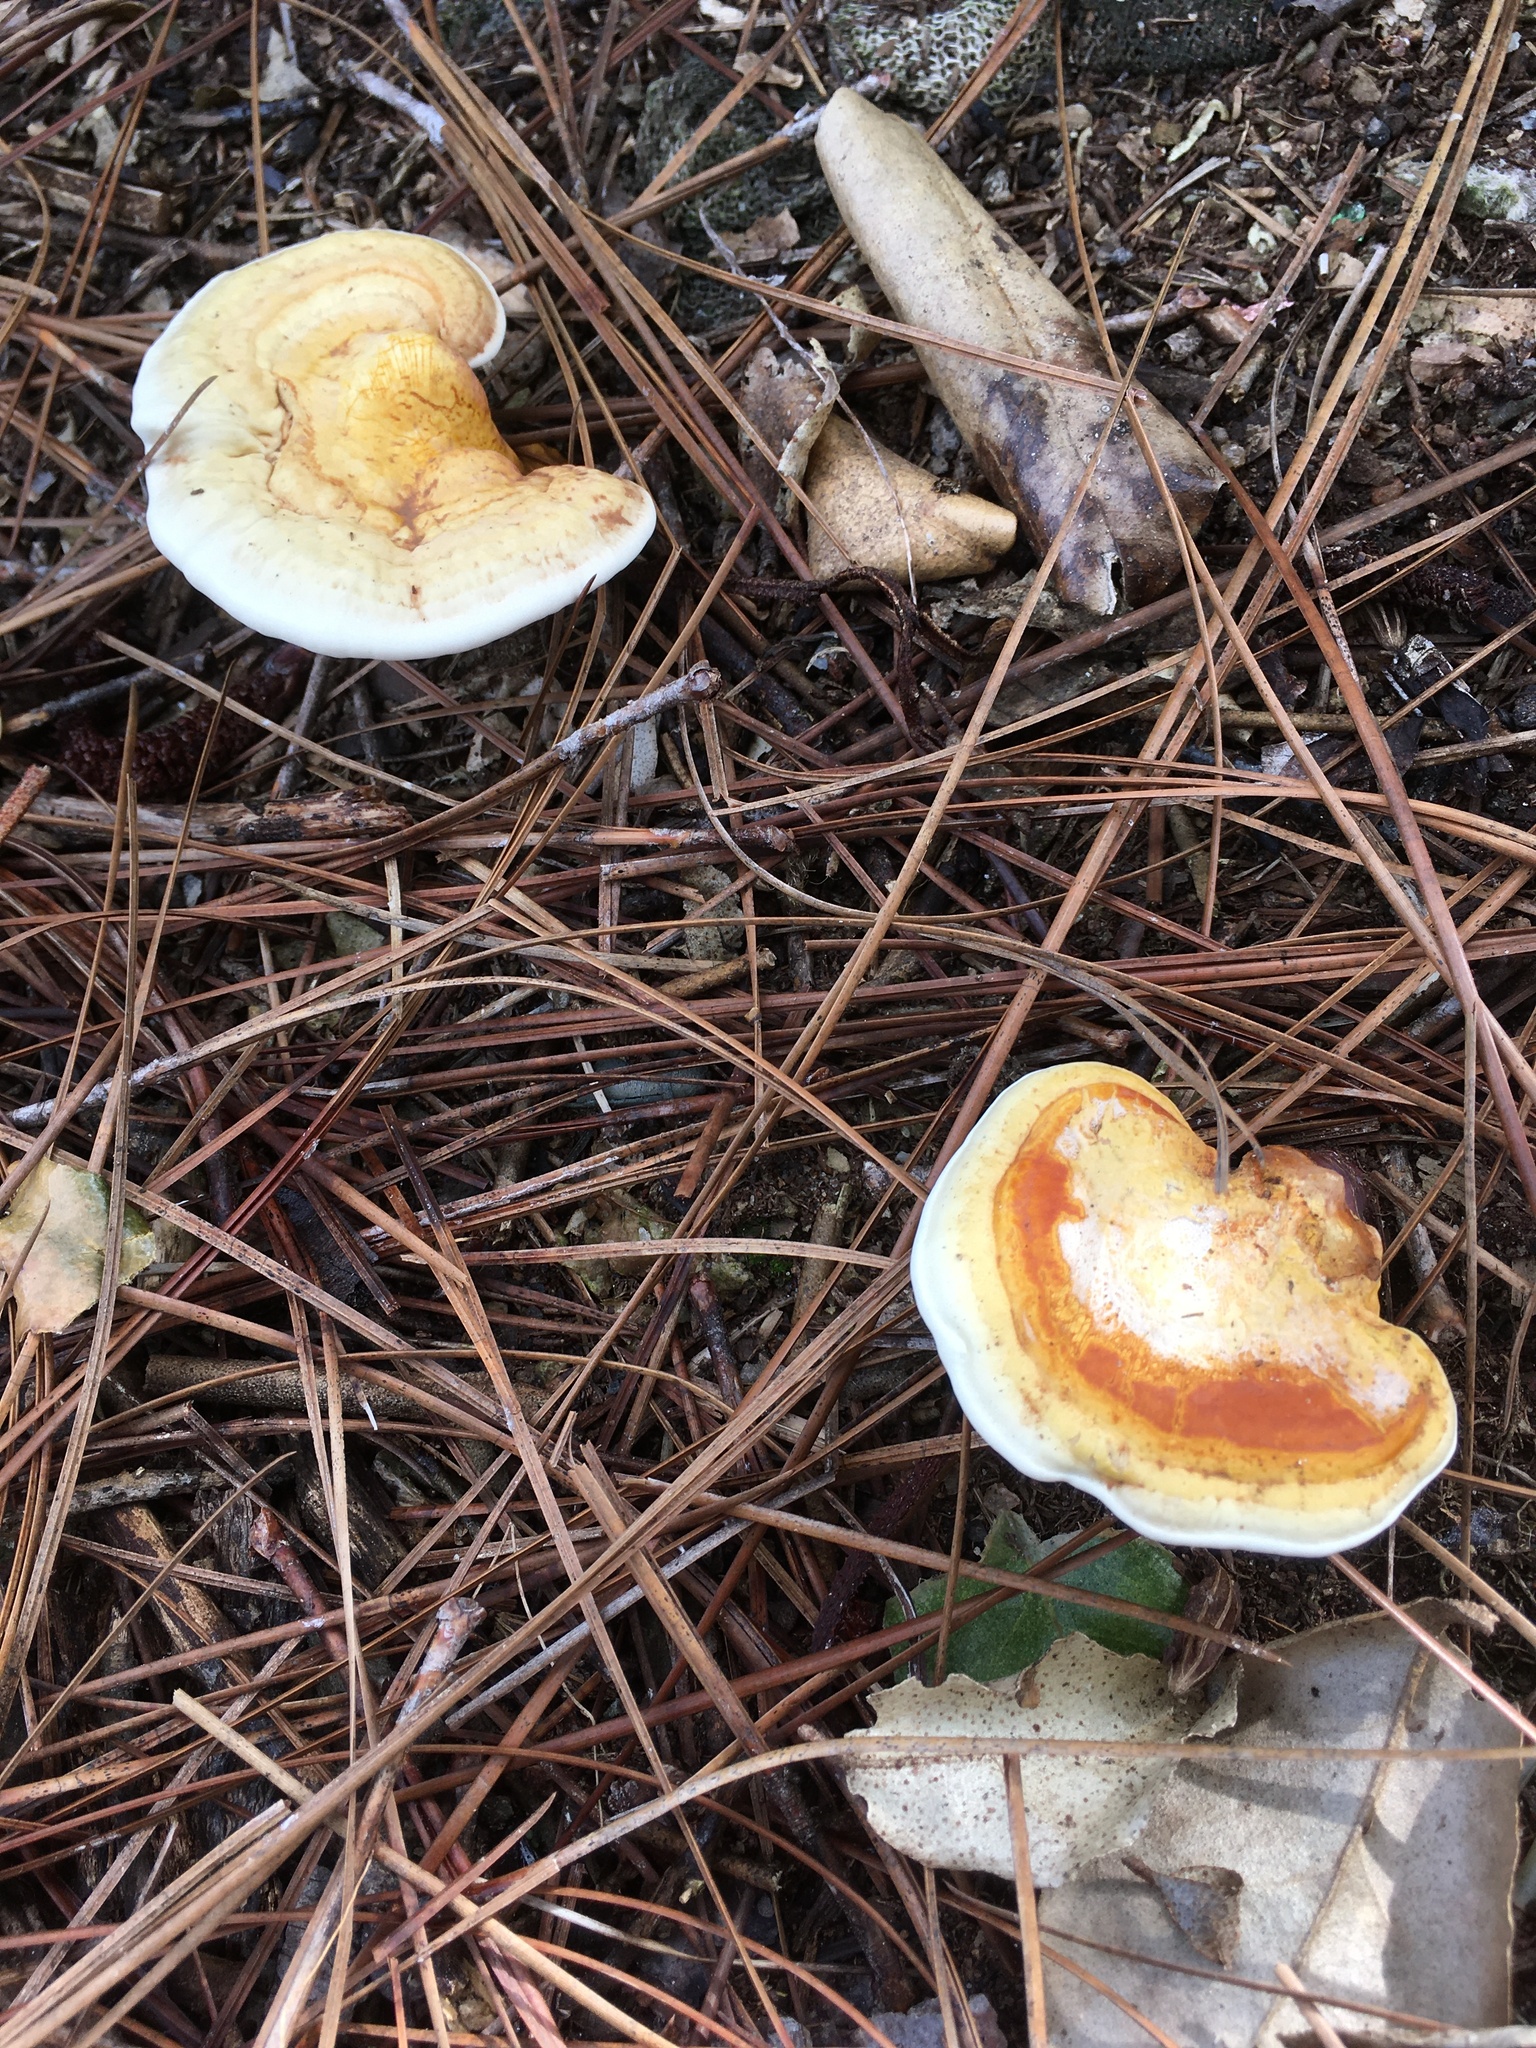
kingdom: Fungi
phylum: Basidiomycota
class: Agaricomycetes
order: Polyporales
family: Polyporaceae
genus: Ganoderma
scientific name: Ganoderma curtisii
